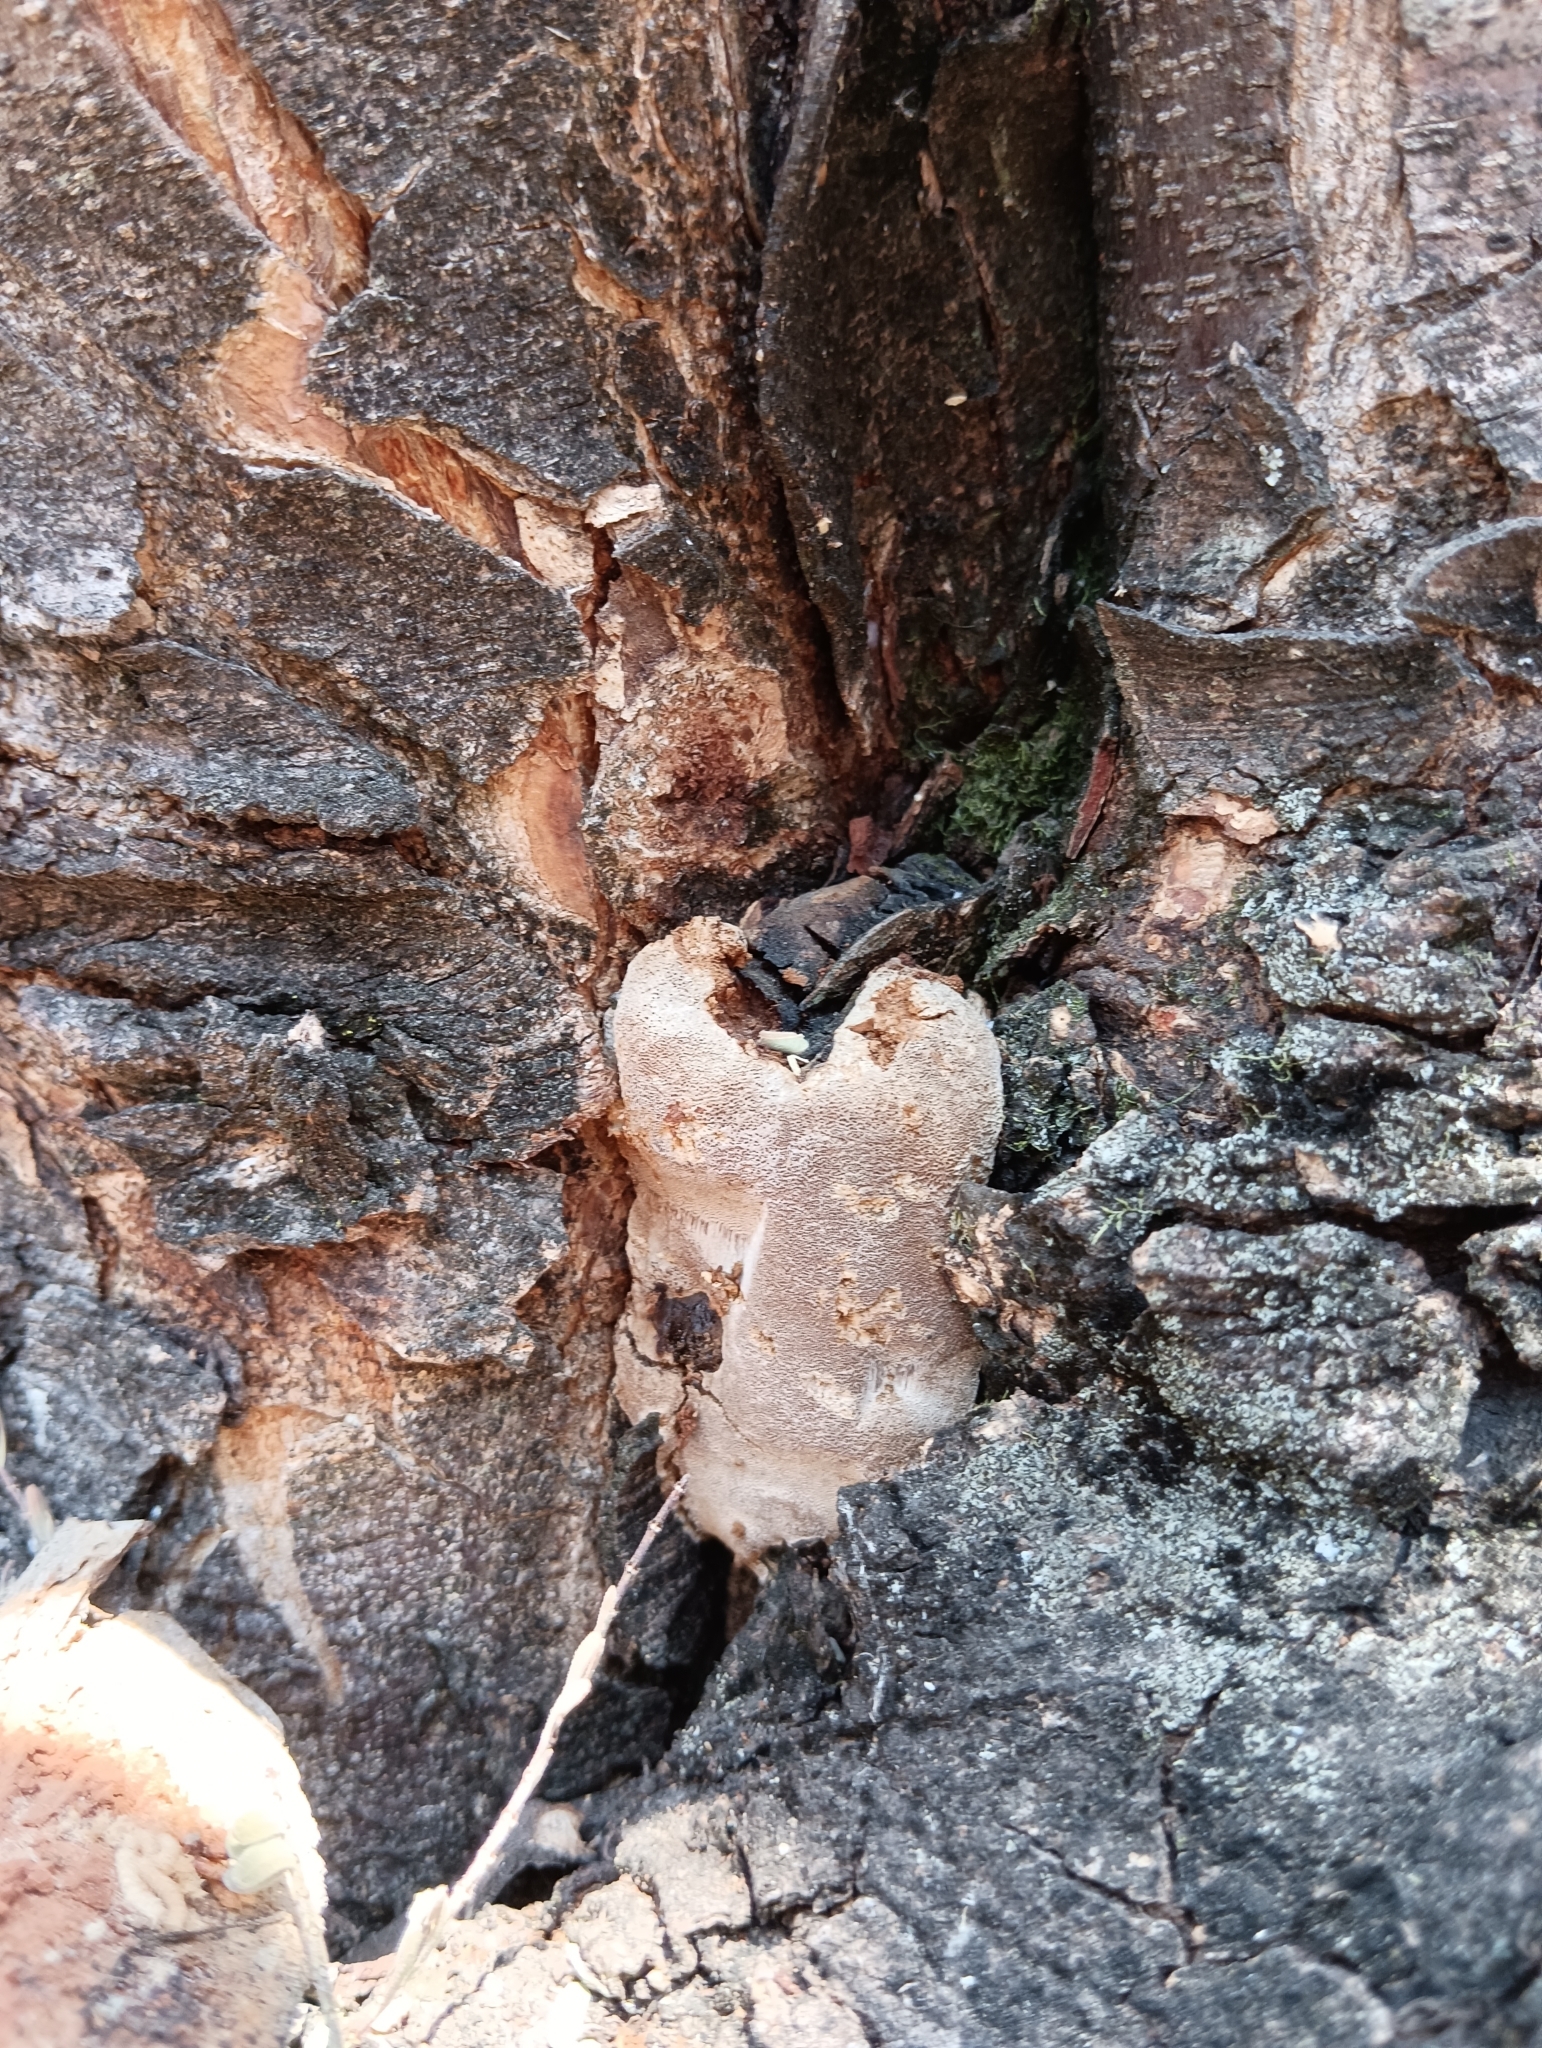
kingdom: Fungi
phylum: Basidiomycota
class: Agaricomycetes
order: Hymenochaetales
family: Hymenochaetaceae
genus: Phellinus
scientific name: Phellinus tremulae
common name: Aspen bracket
